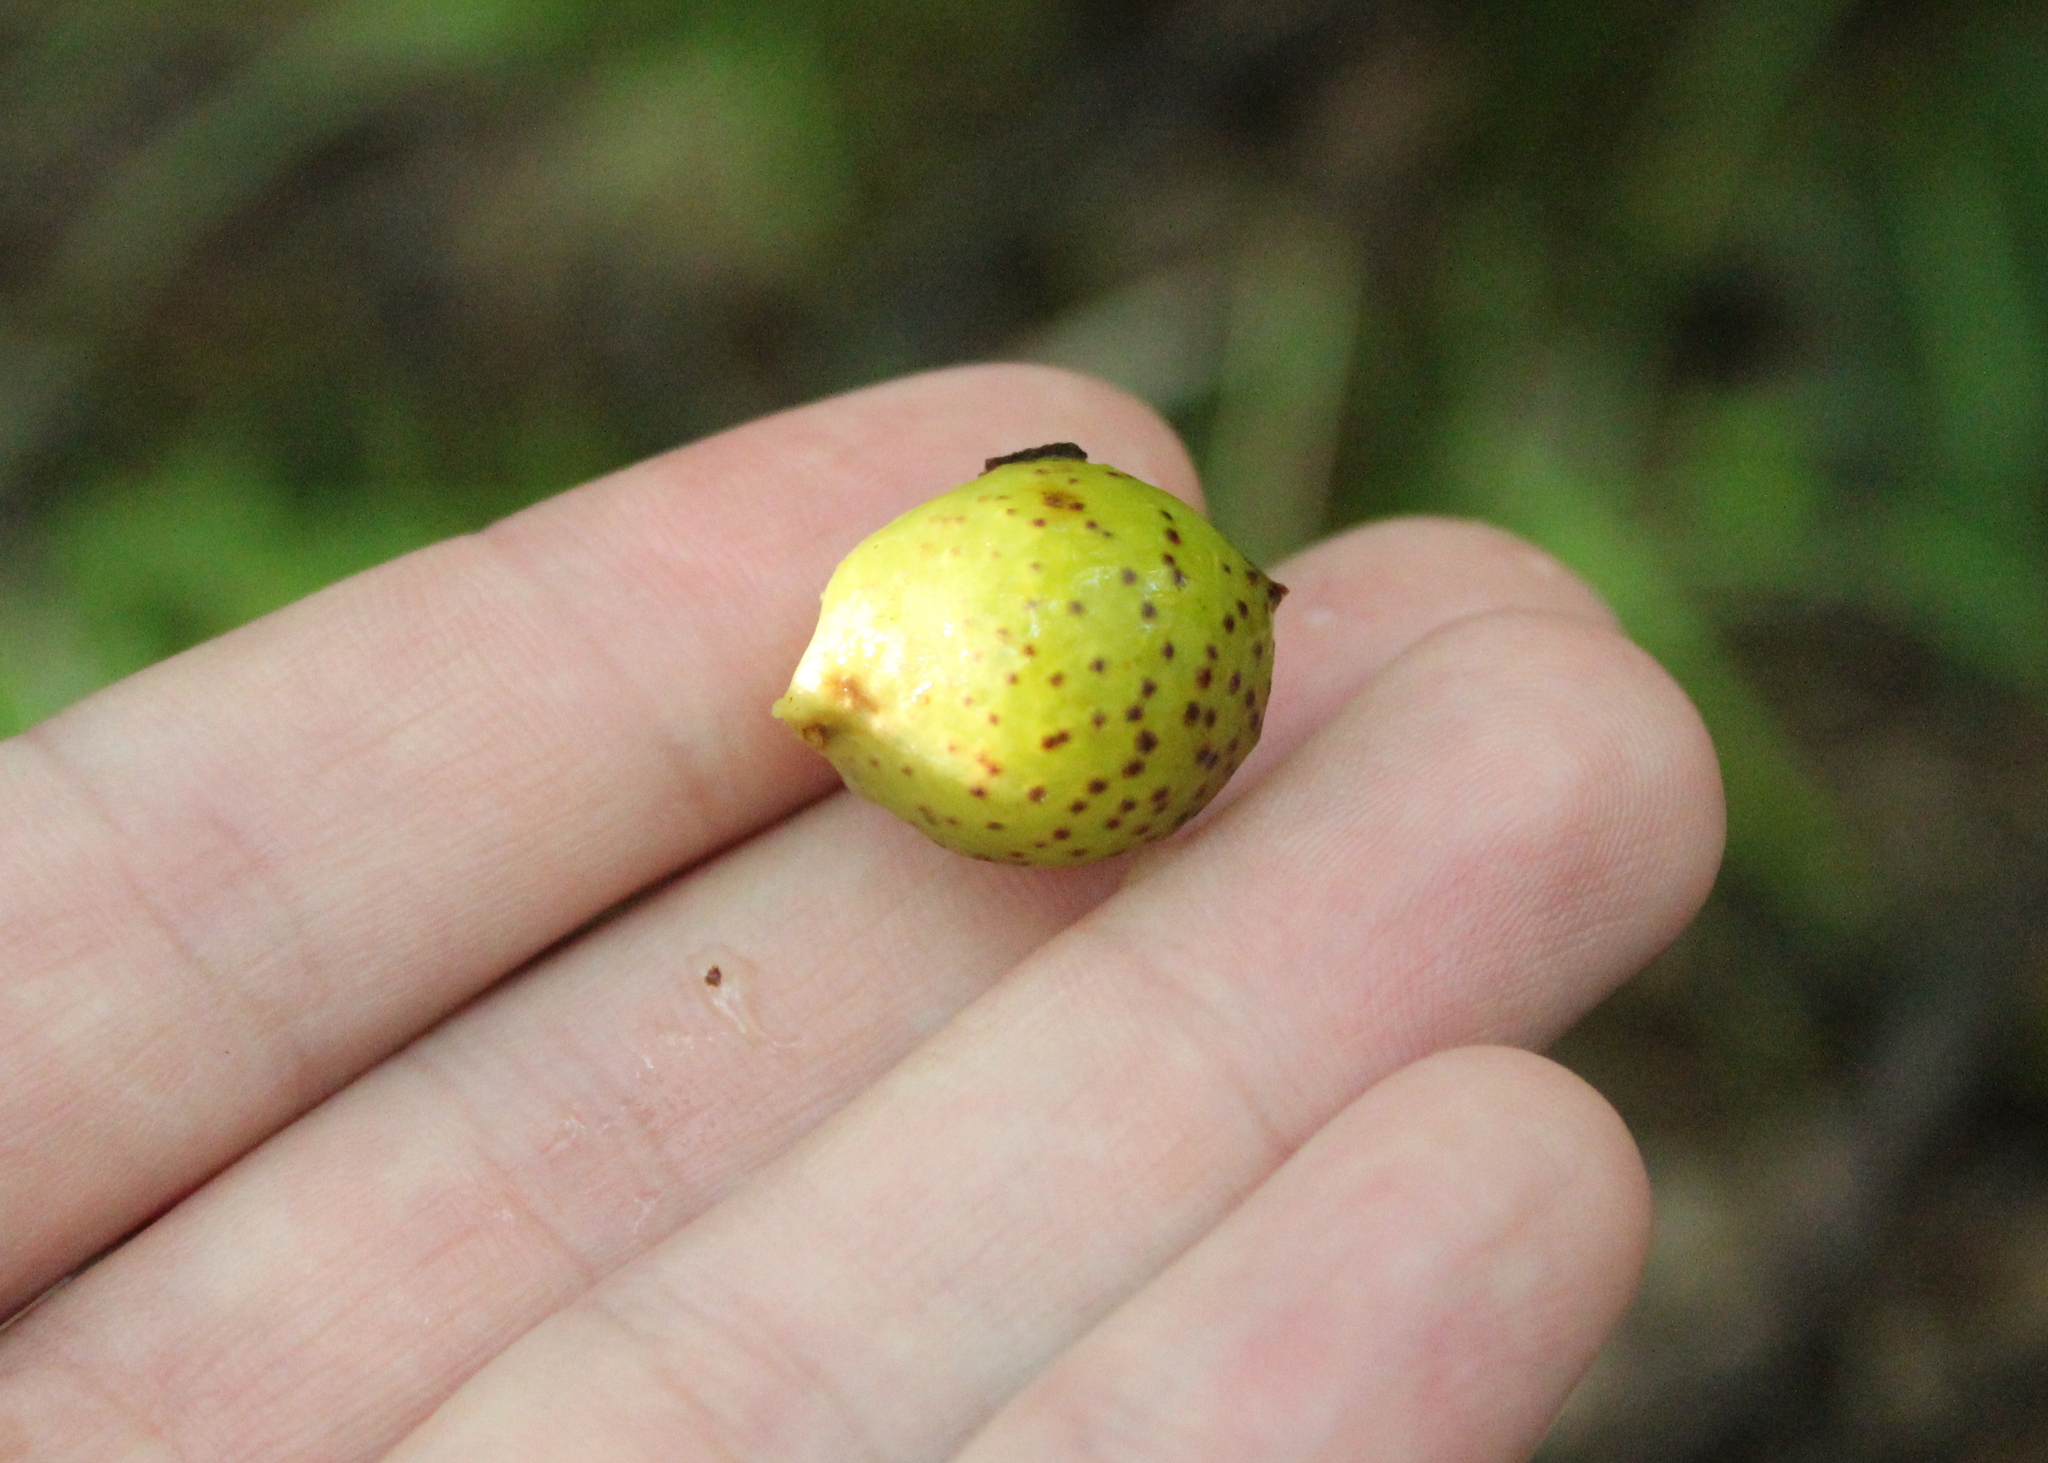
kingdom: Animalia
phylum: Arthropoda
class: Insecta
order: Hymenoptera
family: Cynipidae
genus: Amphibolips
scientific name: Amphibolips
